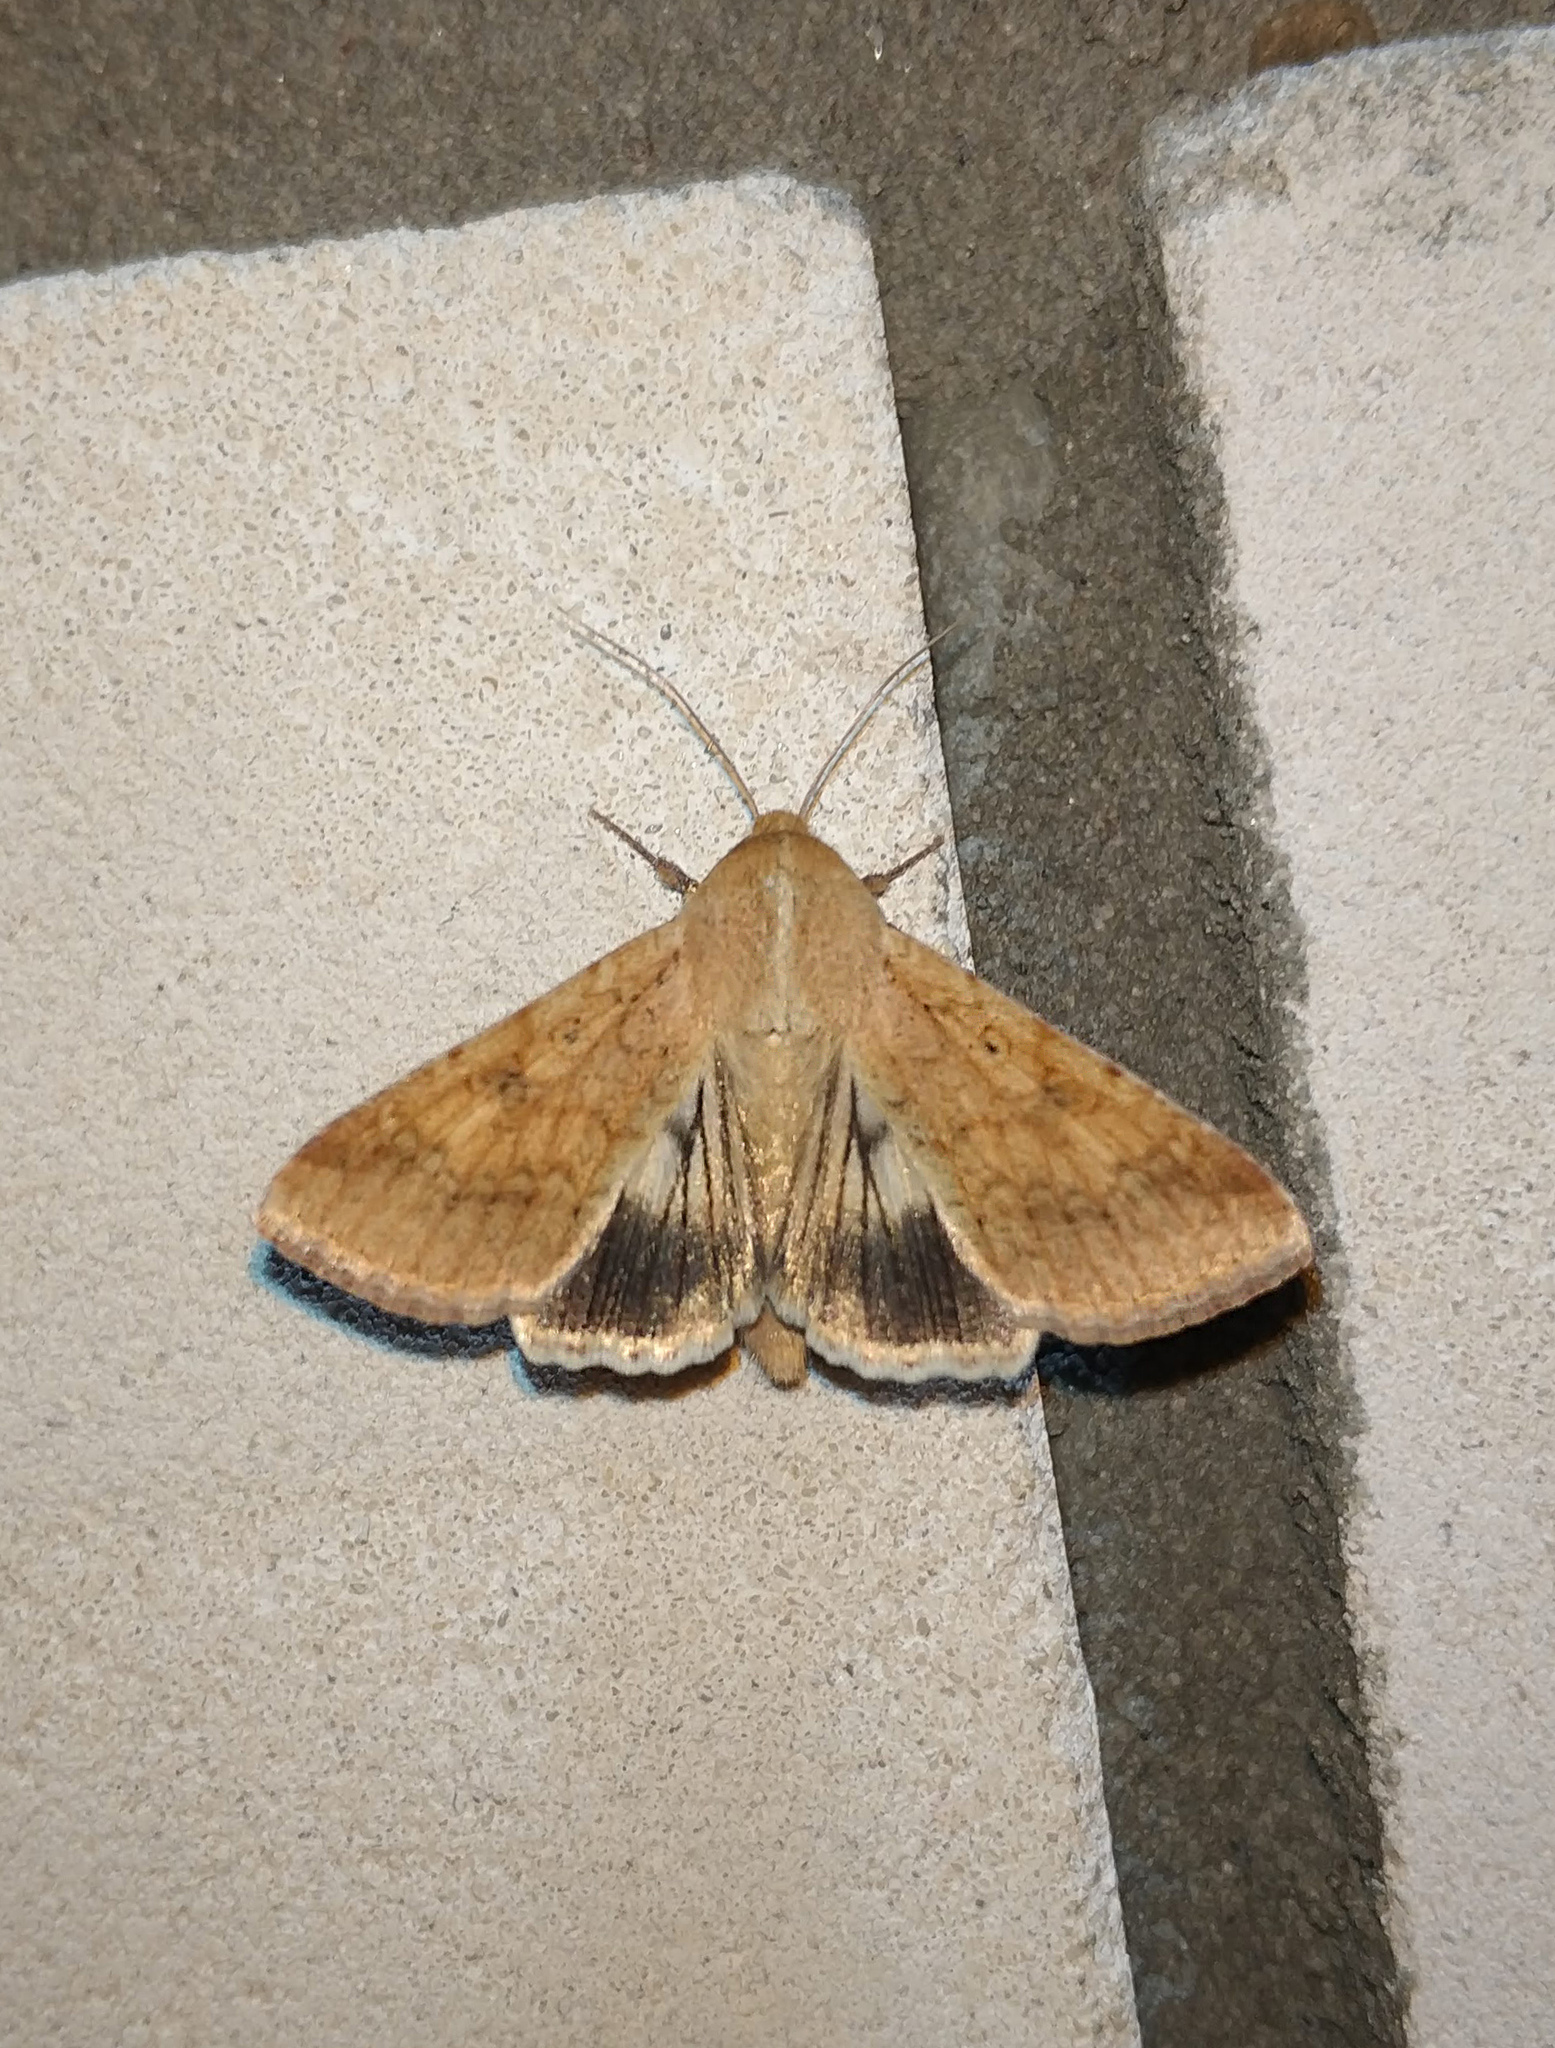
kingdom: Animalia
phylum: Arthropoda
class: Insecta
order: Lepidoptera
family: Noctuidae
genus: Helicoverpa
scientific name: Helicoverpa armigera
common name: Cotton bollworm
